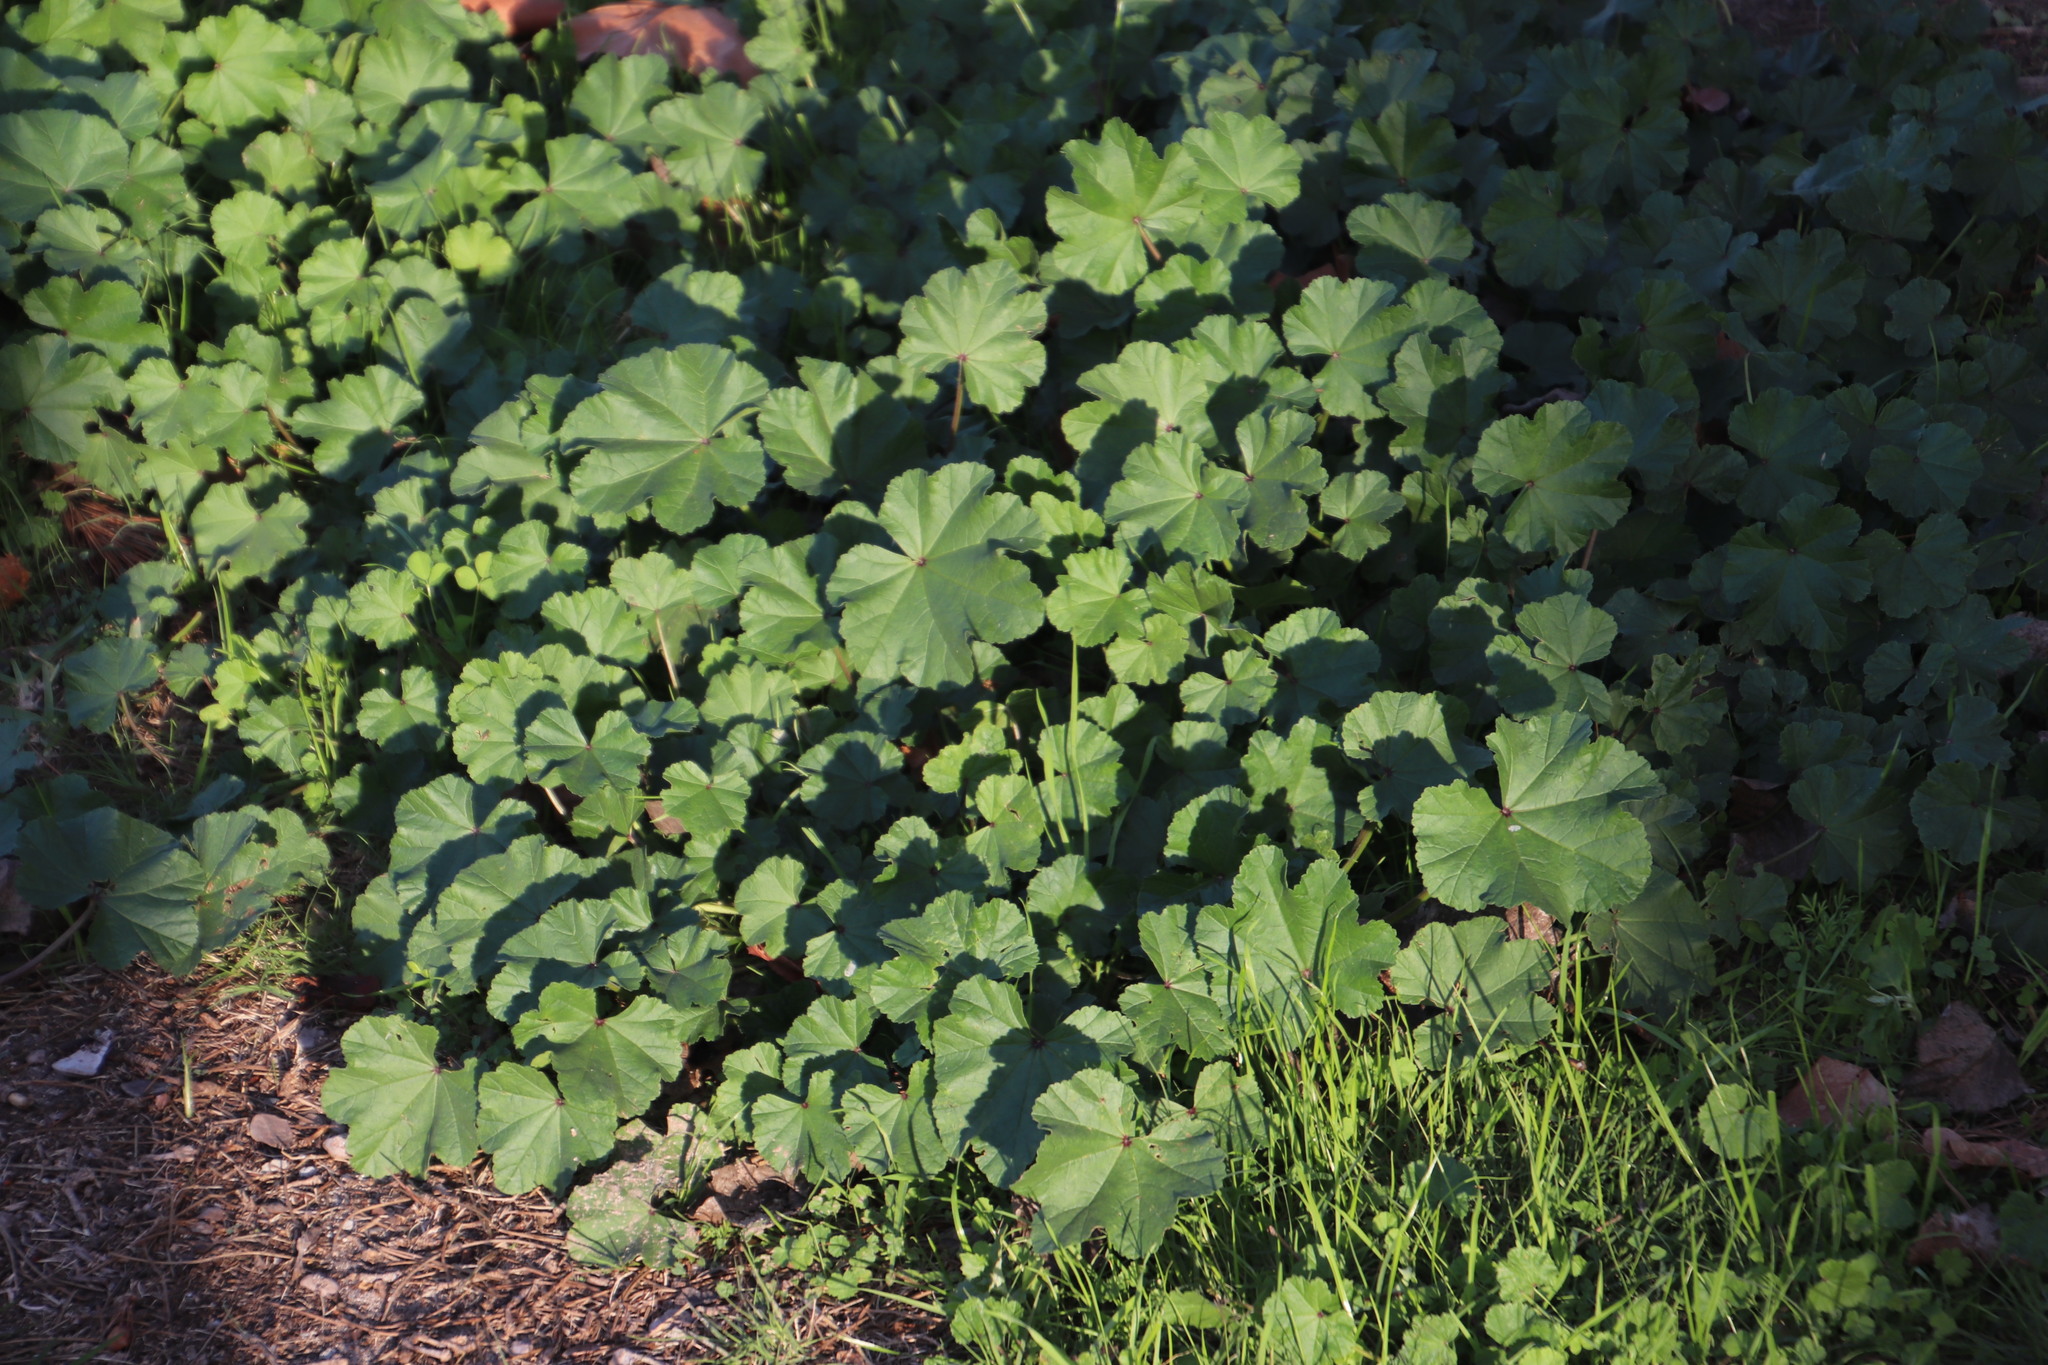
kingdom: Plantae
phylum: Tracheophyta
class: Magnoliopsida
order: Malvales
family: Malvaceae
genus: Malva
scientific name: Malva parviflora
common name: Least mallow
